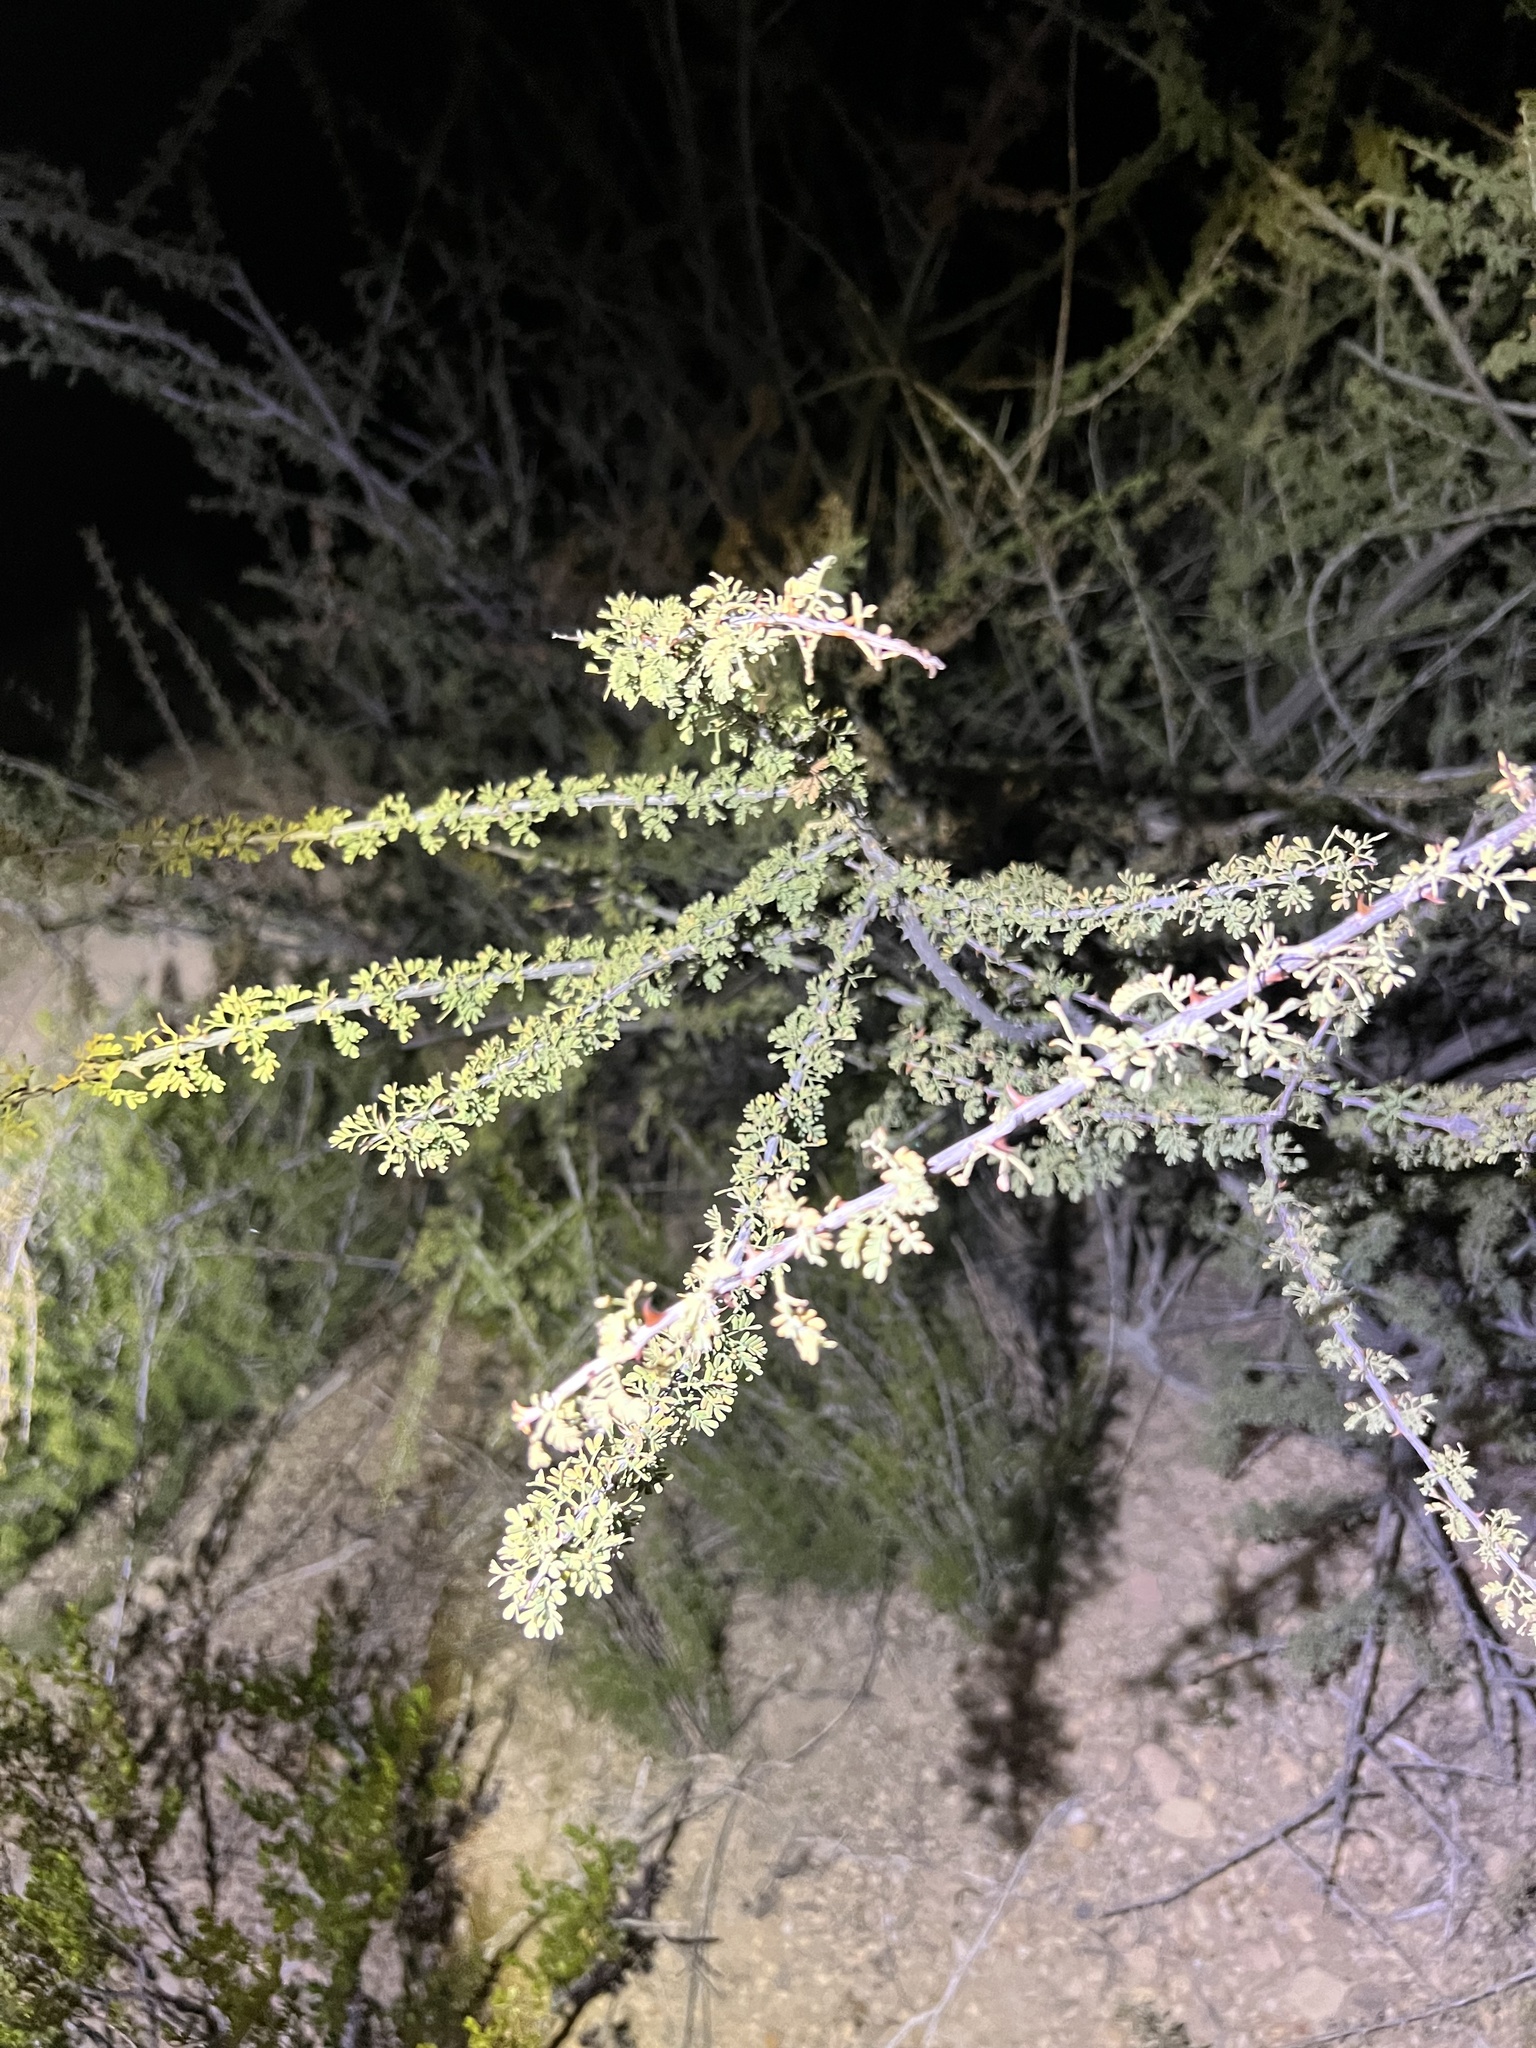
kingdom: Plantae
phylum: Tracheophyta
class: Magnoliopsida
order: Fabales
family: Fabaceae
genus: Senegalia
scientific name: Senegalia greggii
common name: Texas-mimosa
